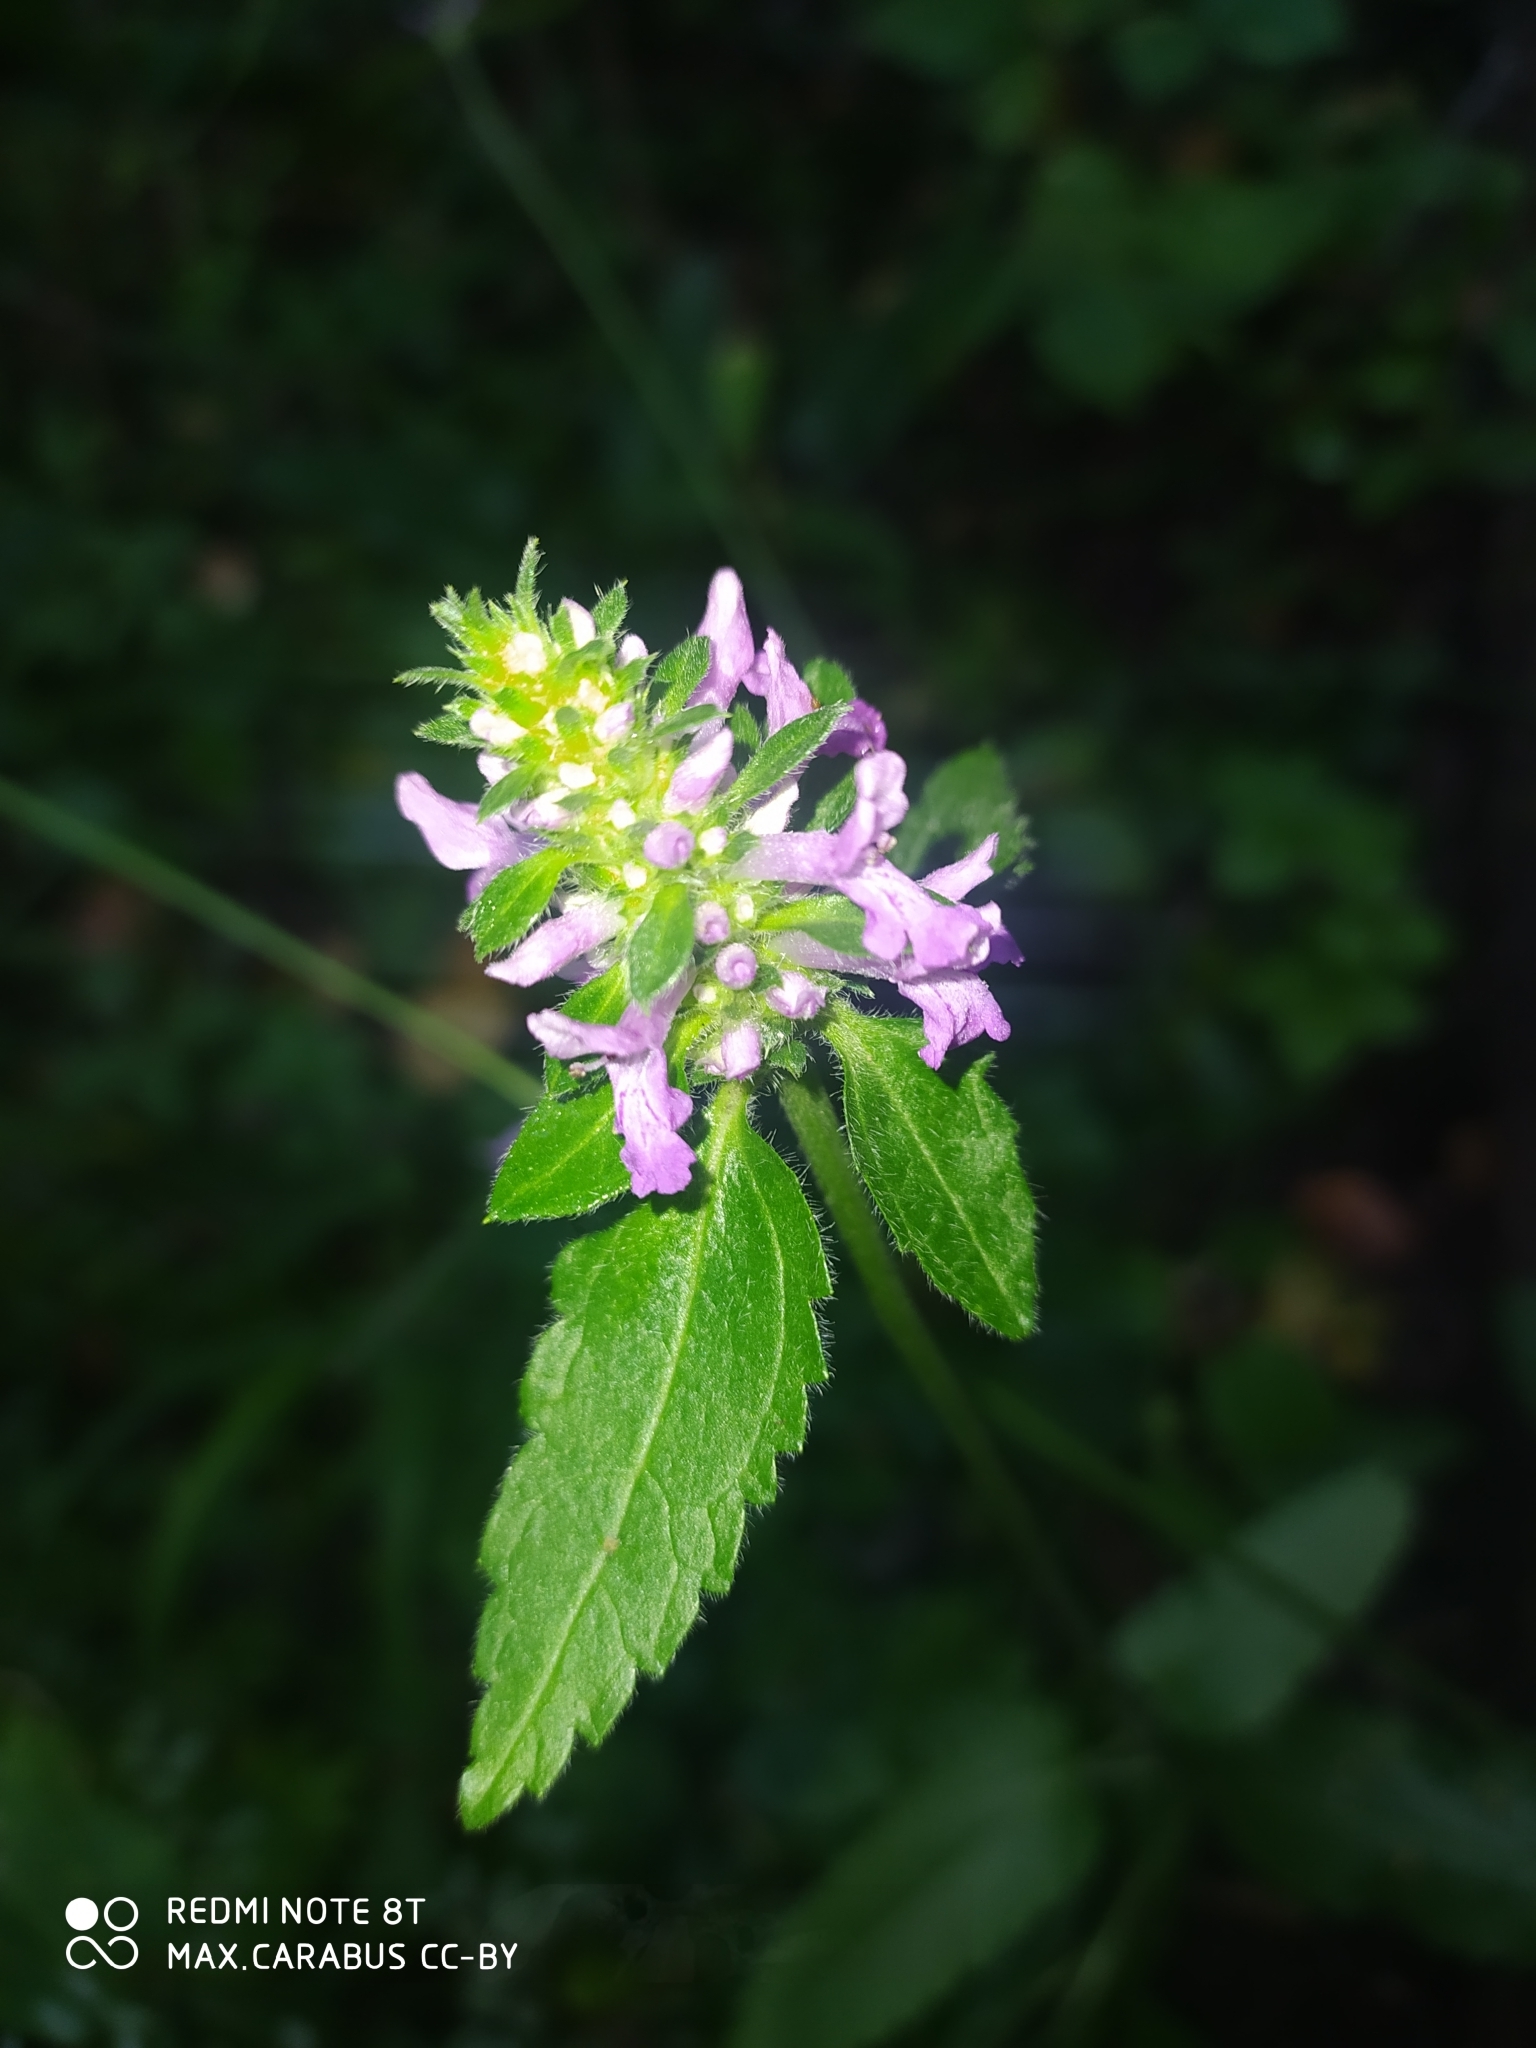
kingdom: Plantae
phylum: Tracheophyta
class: Magnoliopsida
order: Lamiales
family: Lamiaceae
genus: Betonica
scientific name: Betonica officinalis
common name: Bishop's-wort
